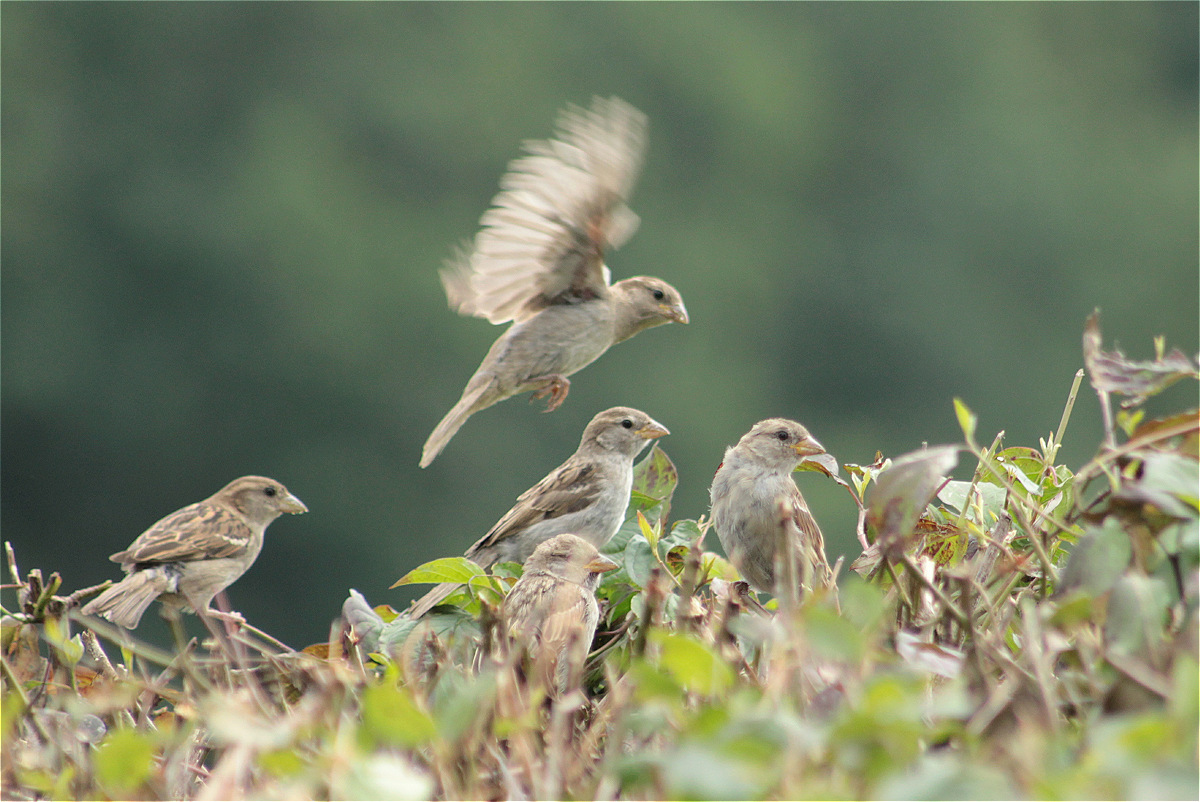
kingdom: Animalia
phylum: Chordata
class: Aves
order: Passeriformes
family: Passeridae
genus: Passer
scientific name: Passer domesticus
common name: House sparrow
